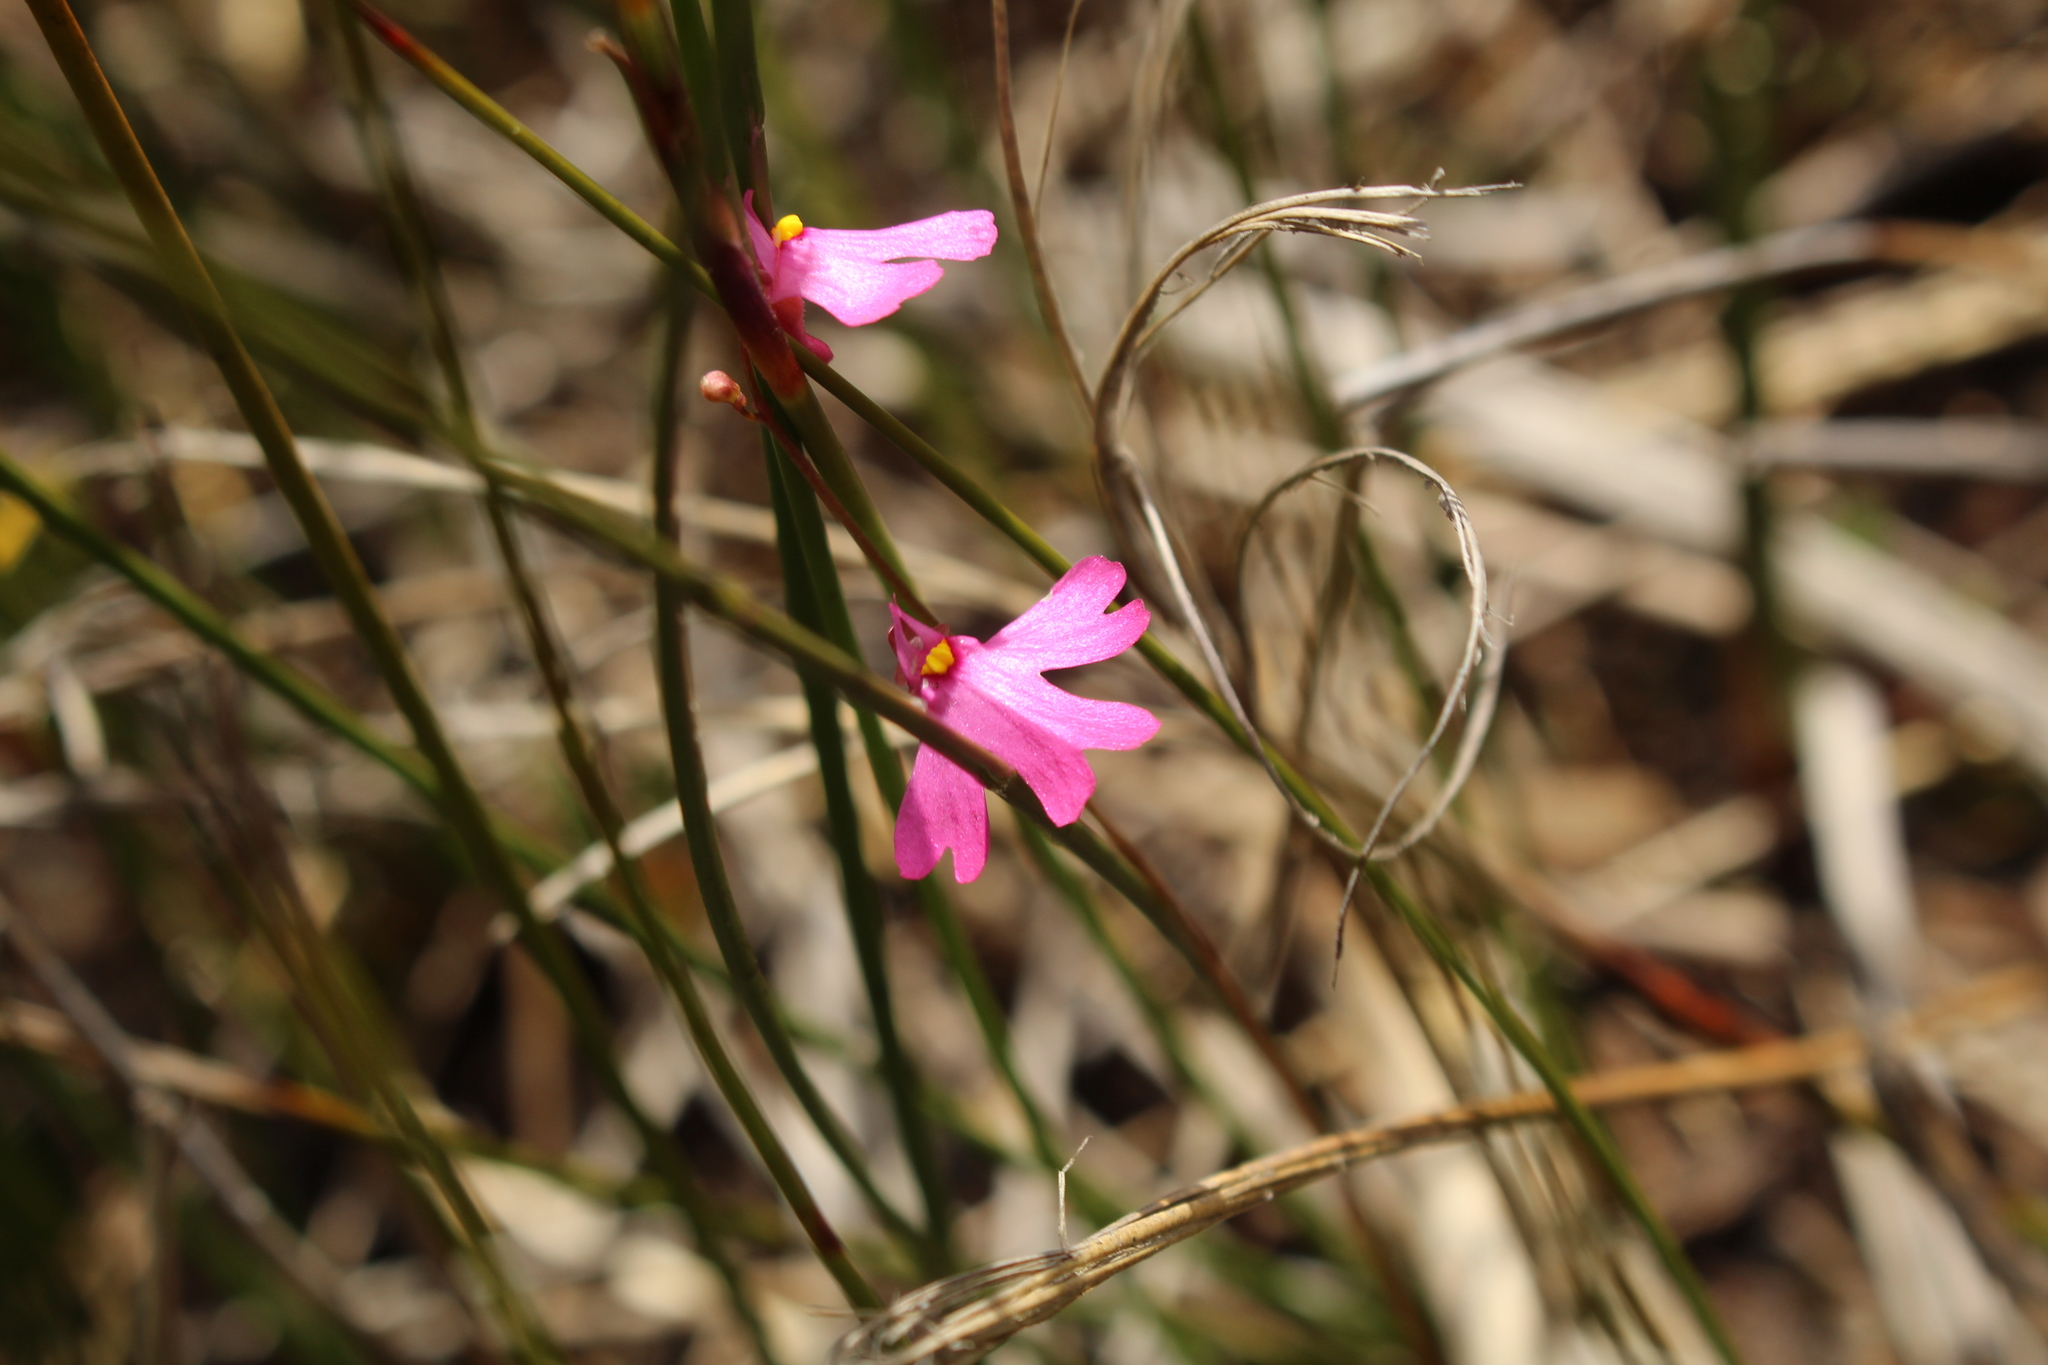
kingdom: Plantae
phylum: Tracheophyta
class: Magnoliopsida
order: Lamiales
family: Lentibulariaceae
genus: Utricularia
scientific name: Utricularia multifida
